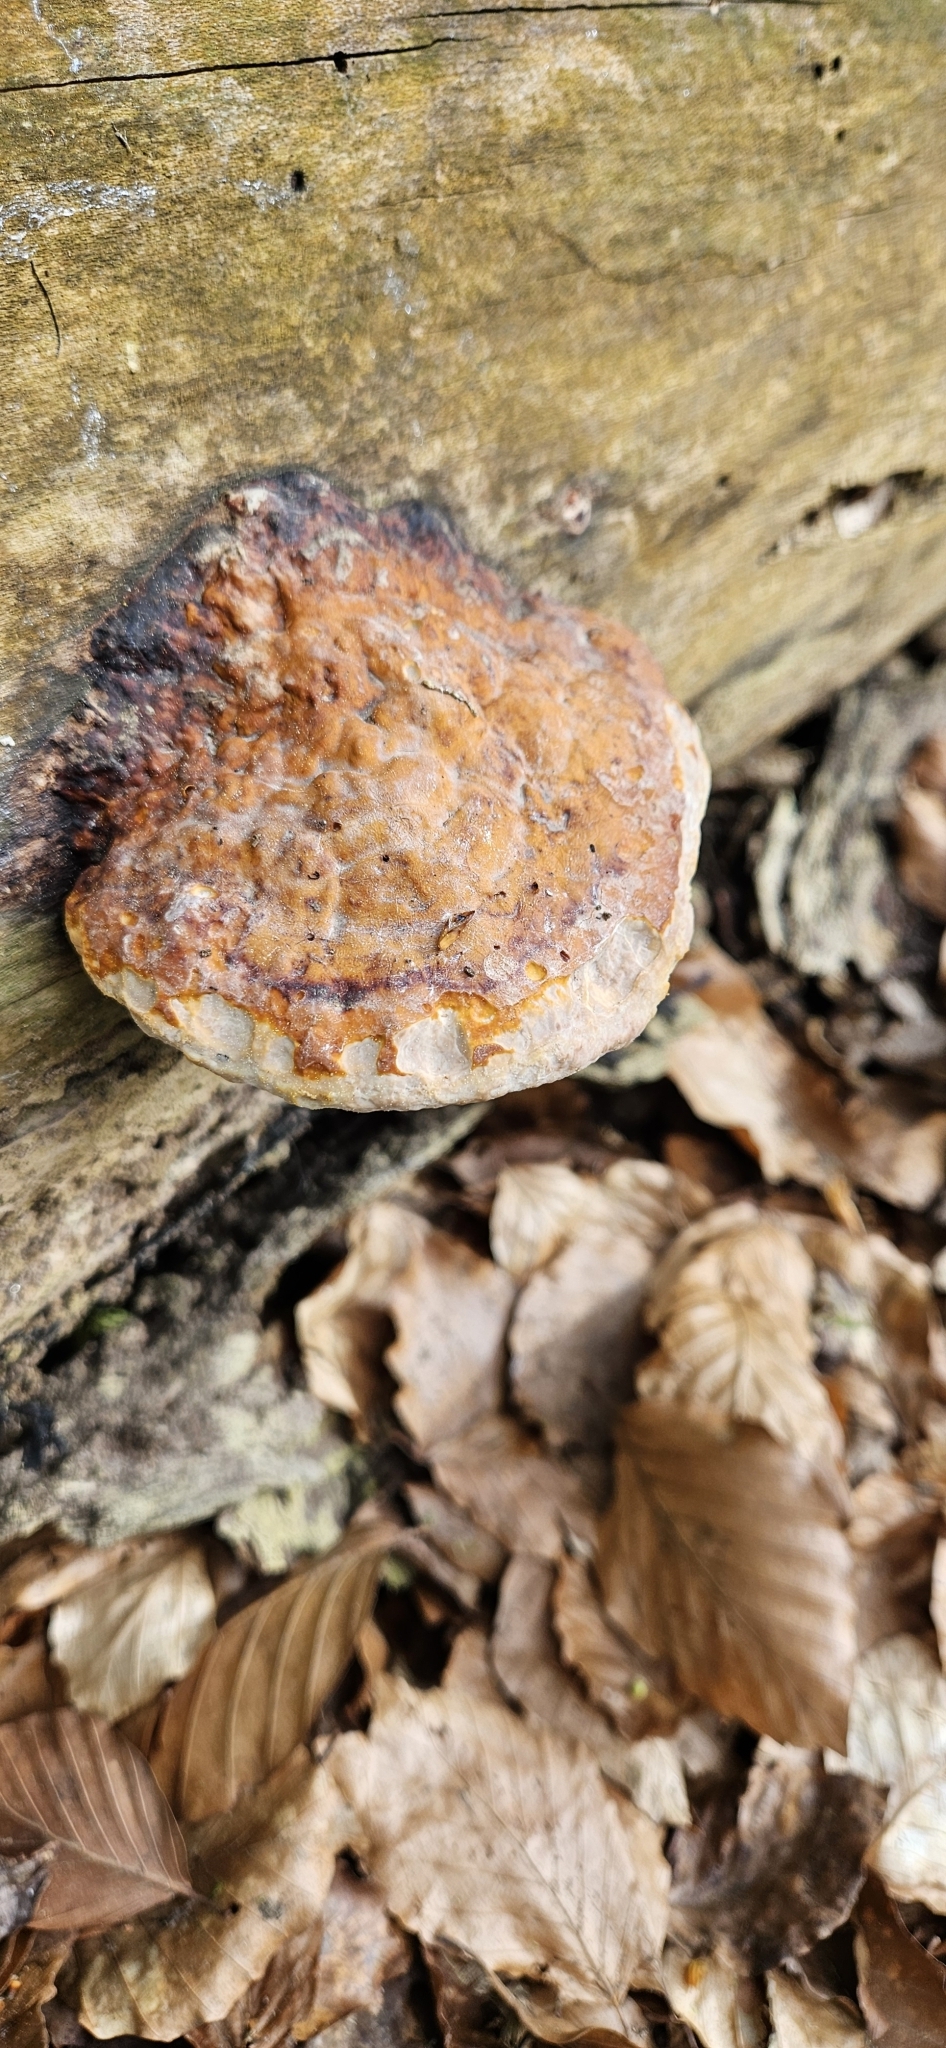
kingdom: Fungi
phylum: Basidiomycota
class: Agaricomycetes
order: Polyporales
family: Fomitopsidaceae
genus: Fomitopsis
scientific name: Fomitopsis pinicola
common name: Red-belted bracket
